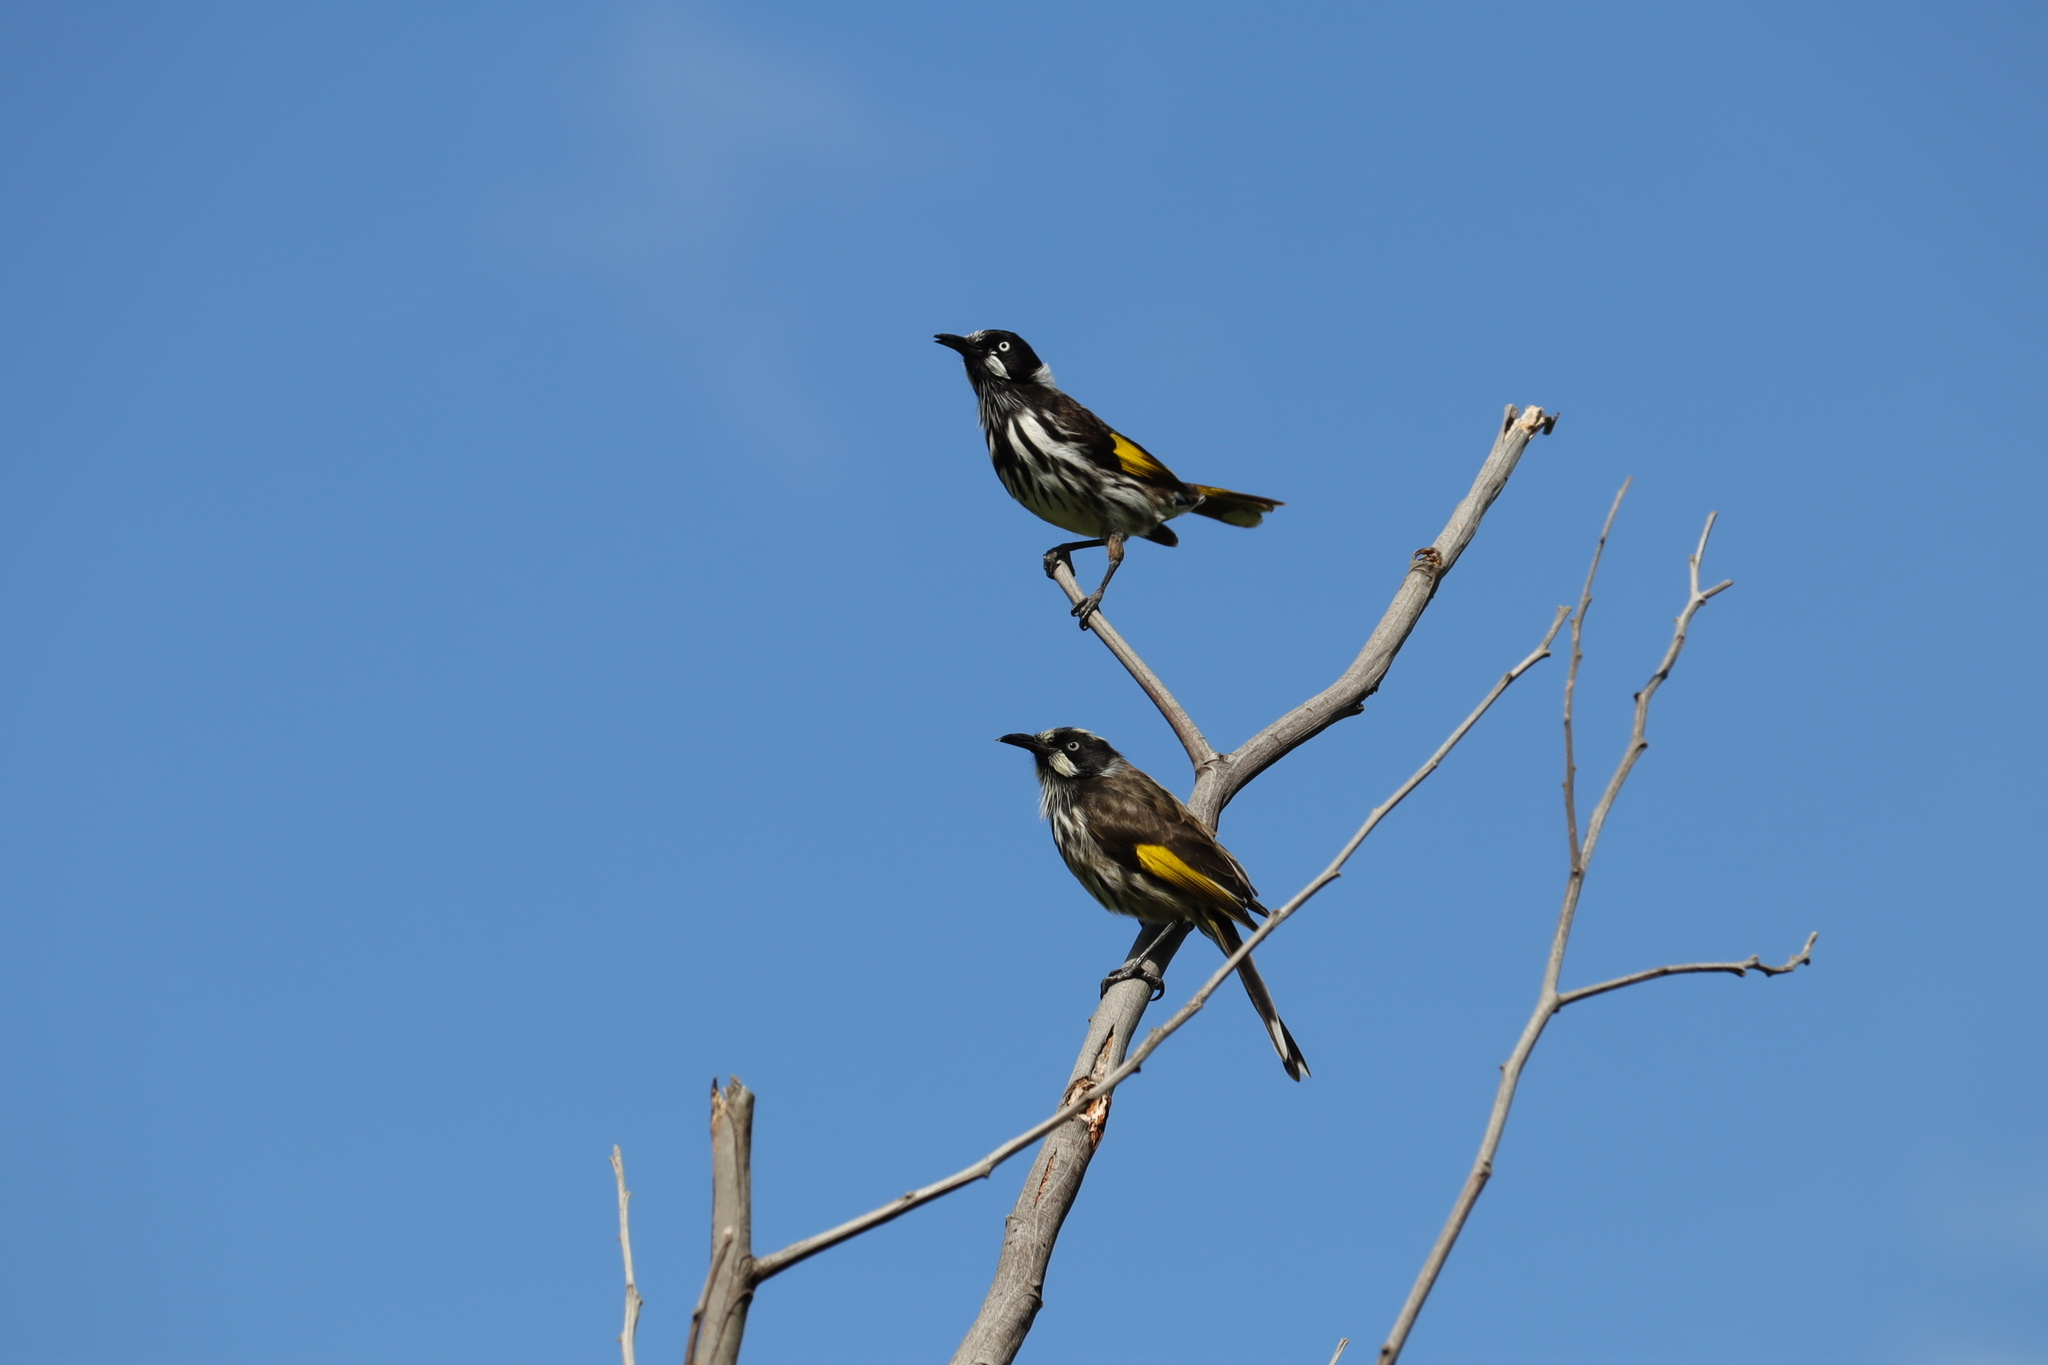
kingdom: Animalia
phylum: Chordata
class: Aves
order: Passeriformes
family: Meliphagidae
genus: Phylidonyris
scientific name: Phylidonyris novaehollandiae
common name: New holland honeyeater
